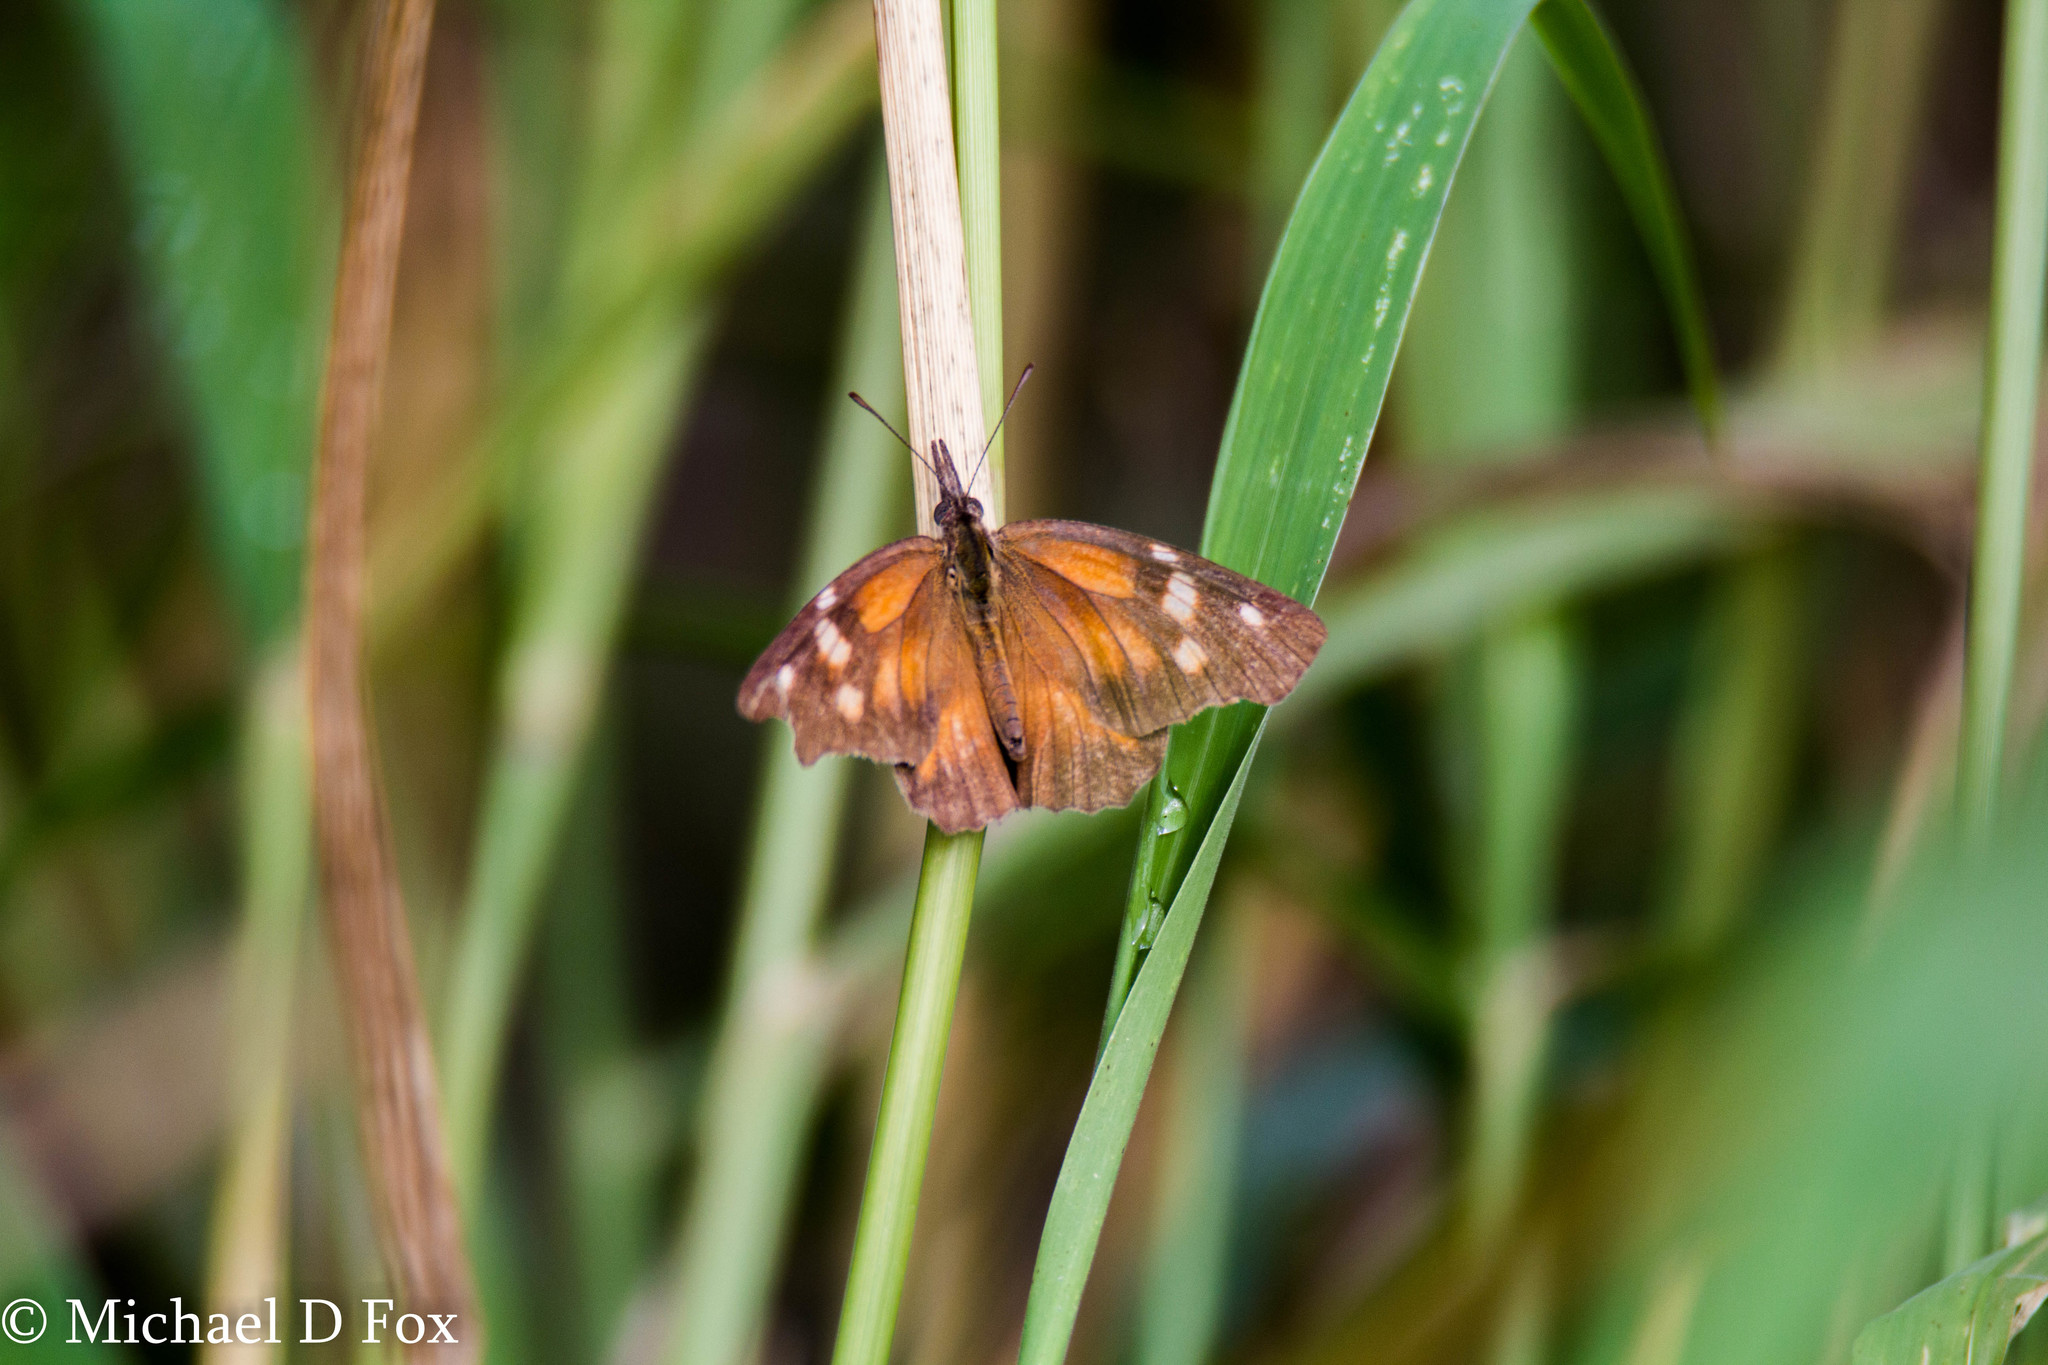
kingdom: Animalia
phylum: Arthropoda
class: Insecta
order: Lepidoptera
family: Nymphalidae
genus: Libytheana
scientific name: Libytheana carinenta
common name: American snout
